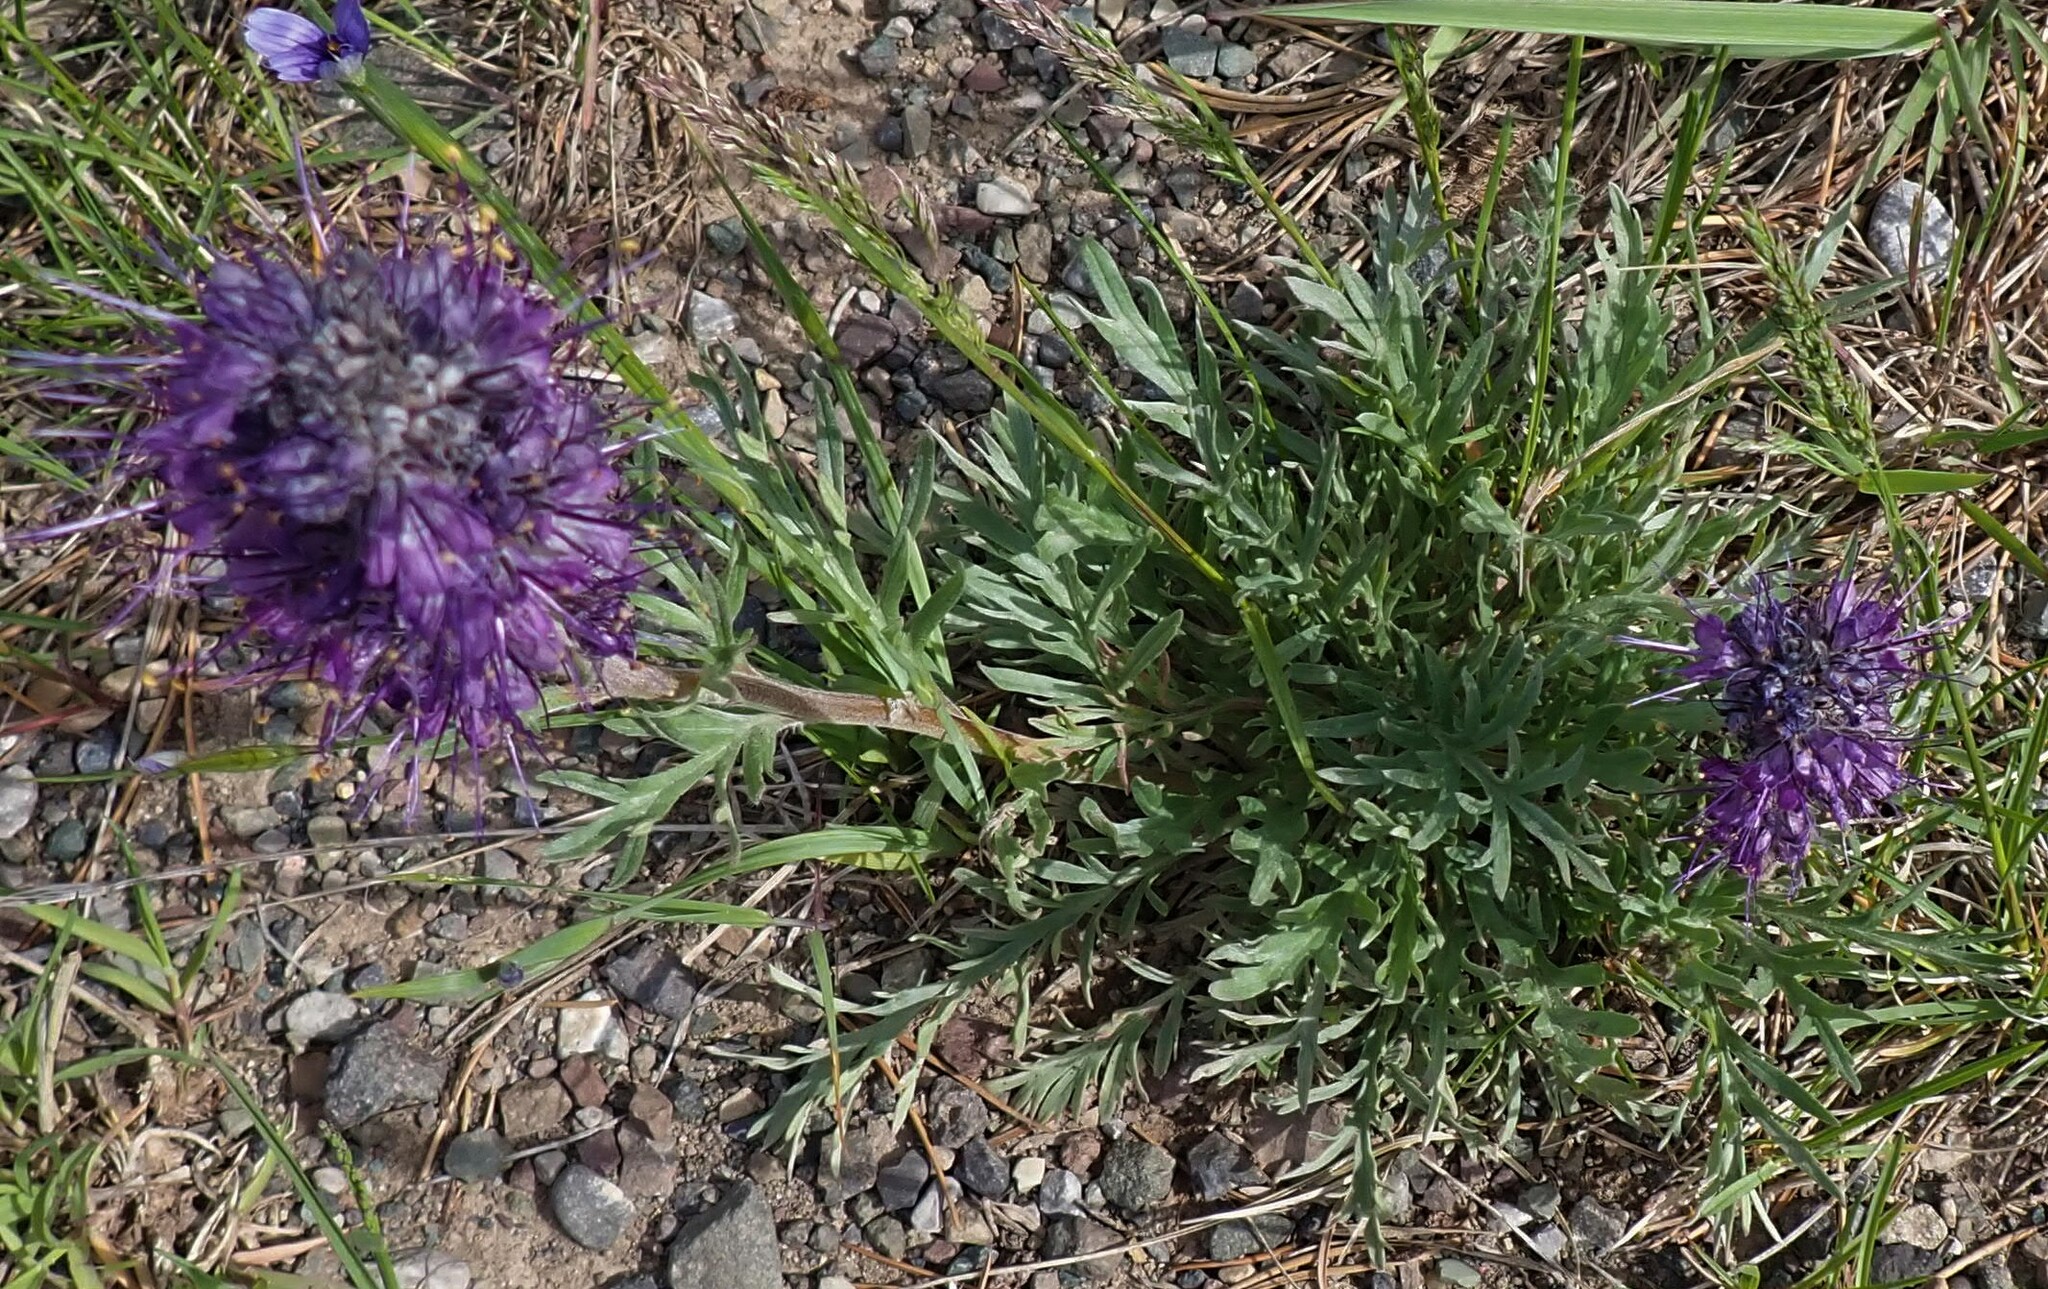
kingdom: Plantae
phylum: Tracheophyta
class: Magnoliopsida
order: Boraginales
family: Hydrophyllaceae
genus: Phacelia
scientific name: Phacelia sericea
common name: Silky phacelia
